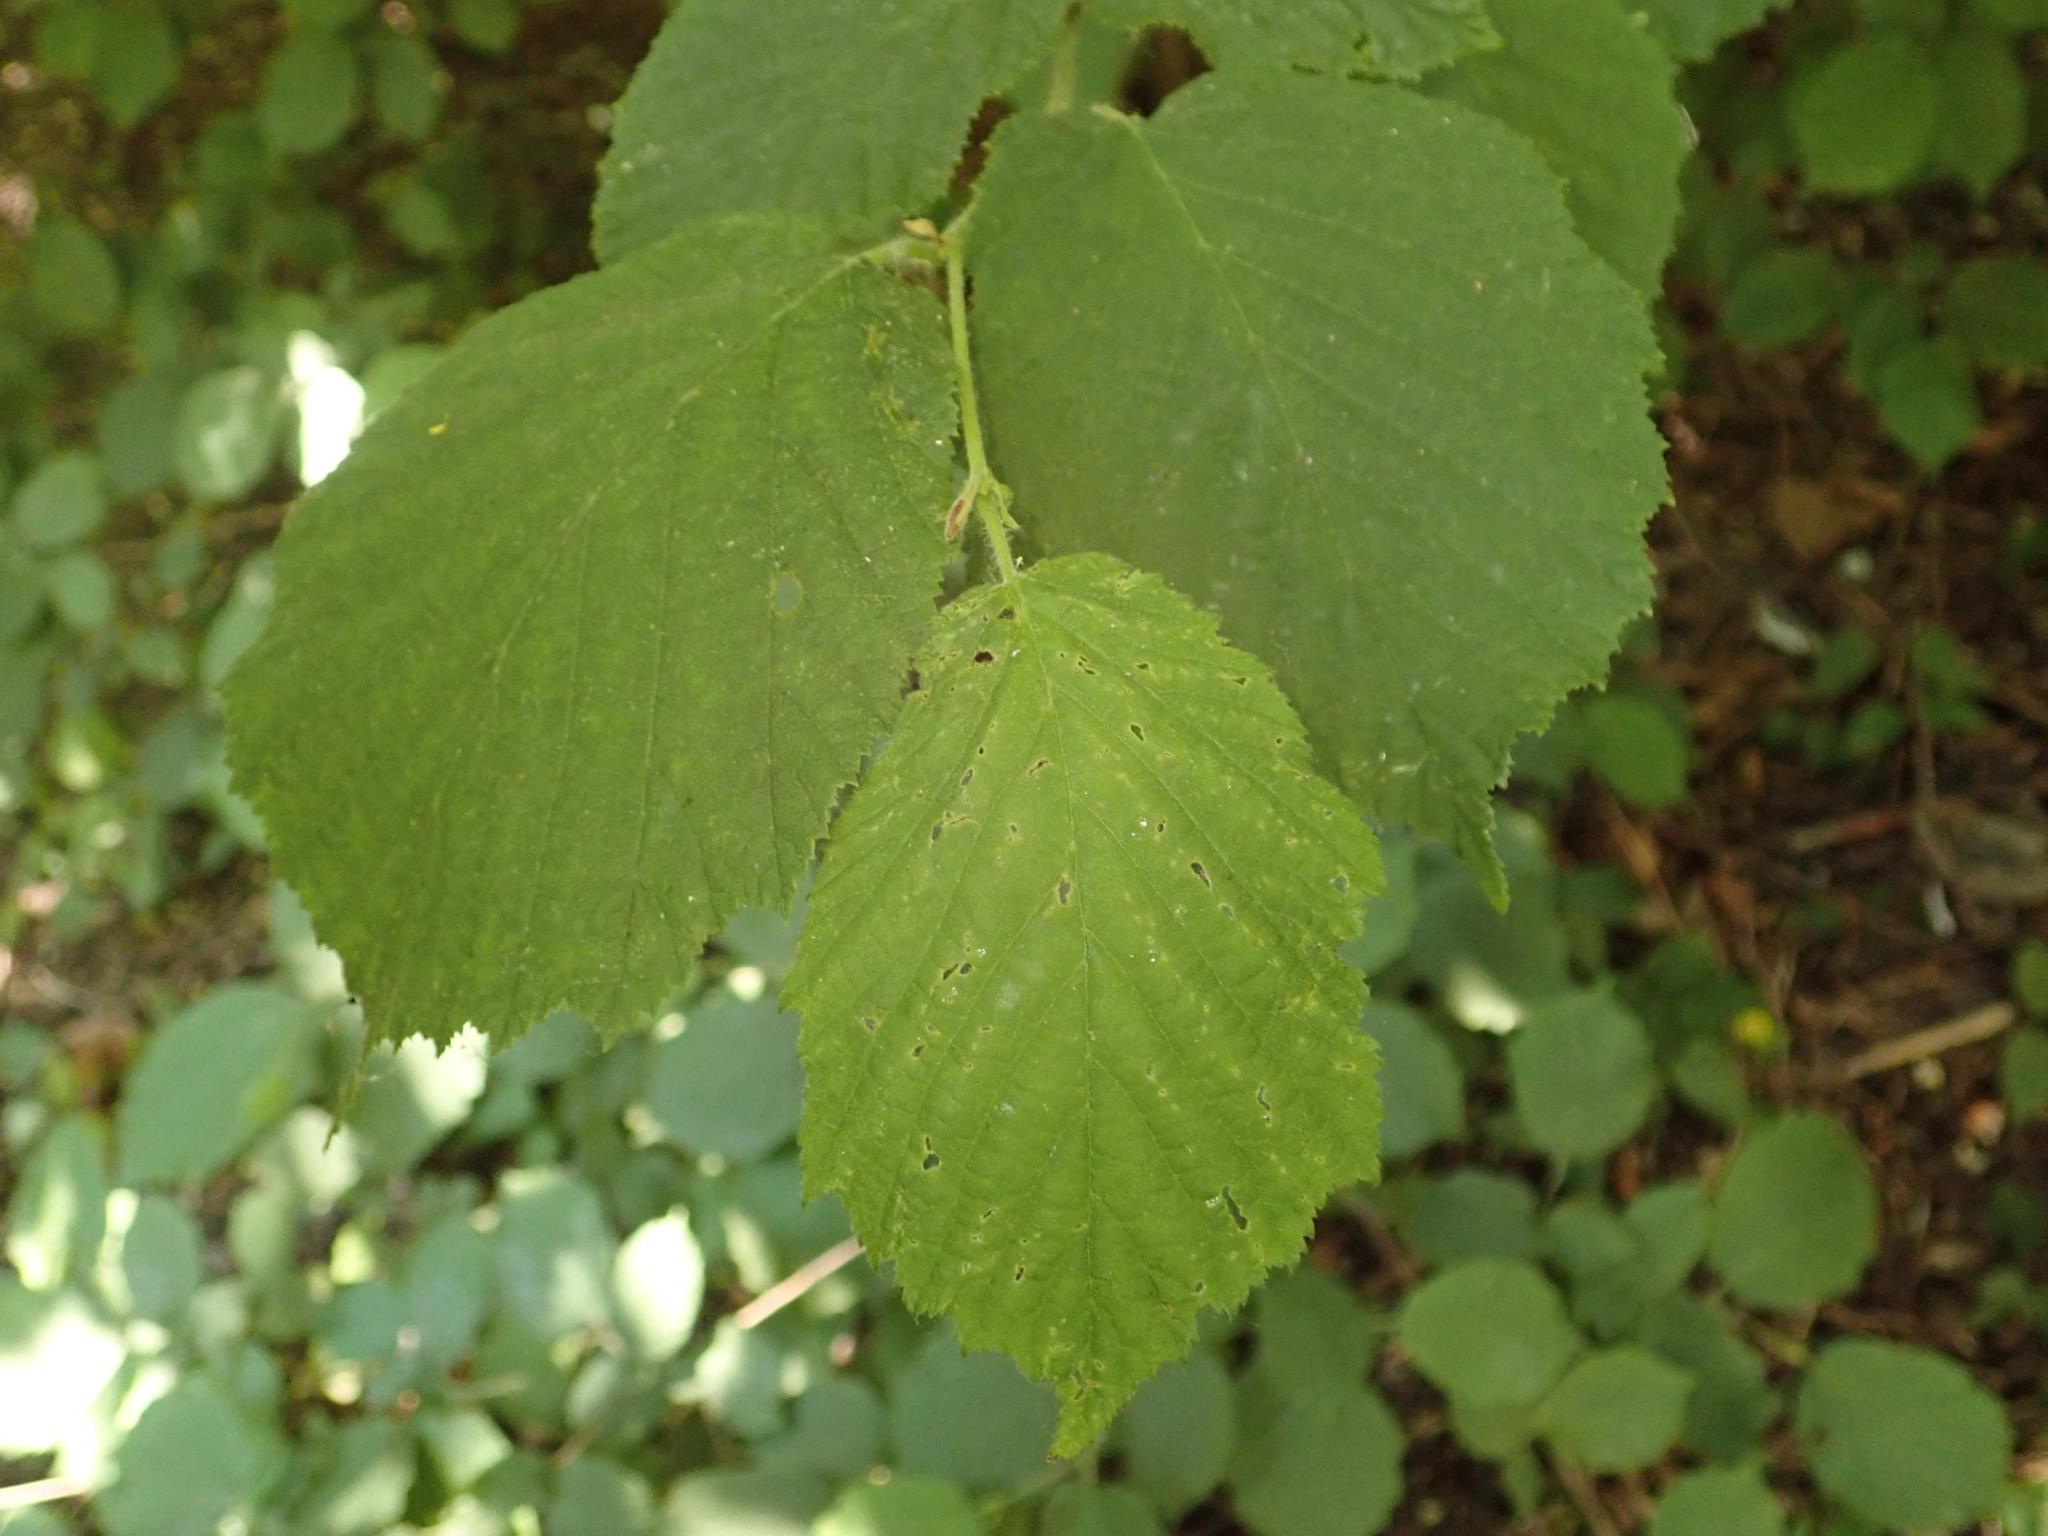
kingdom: Plantae
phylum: Tracheophyta
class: Magnoliopsida
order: Fagales
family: Betulaceae
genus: Corylus
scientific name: Corylus avellana
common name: European hazel
